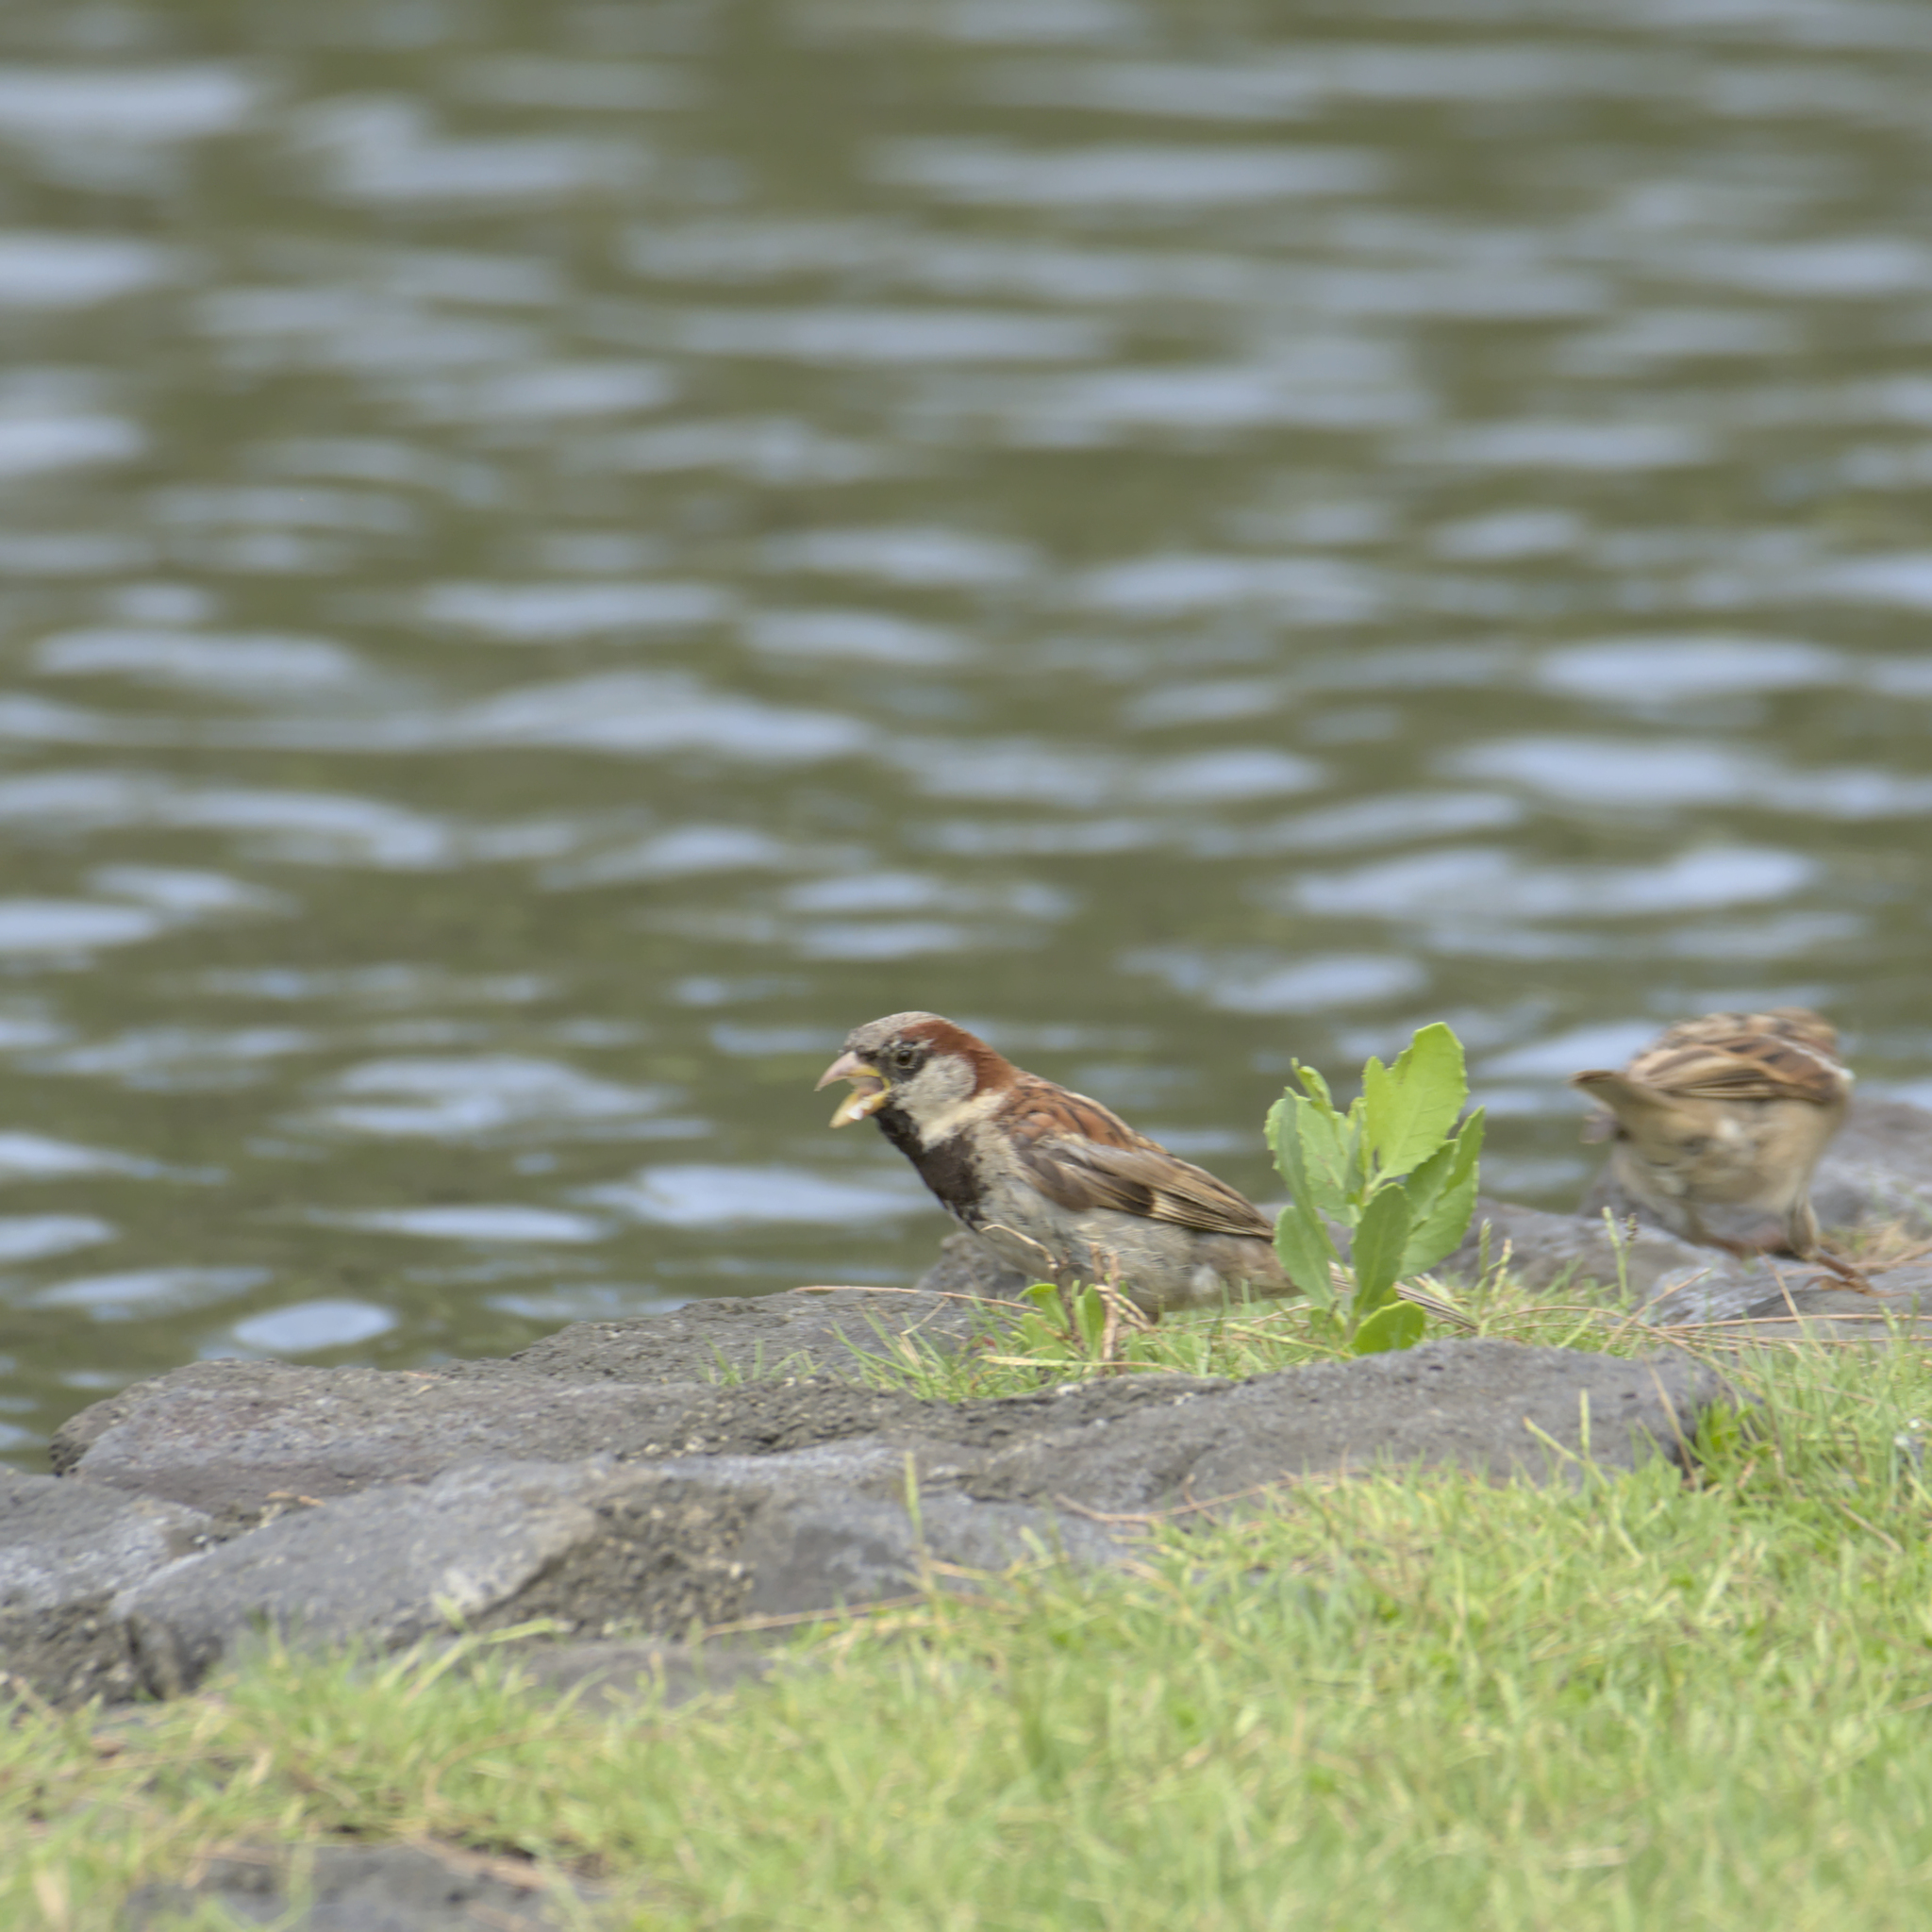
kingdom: Animalia
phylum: Chordata
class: Aves
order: Passeriformes
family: Passeridae
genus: Passer
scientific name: Passer domesticus
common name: House sparrow
